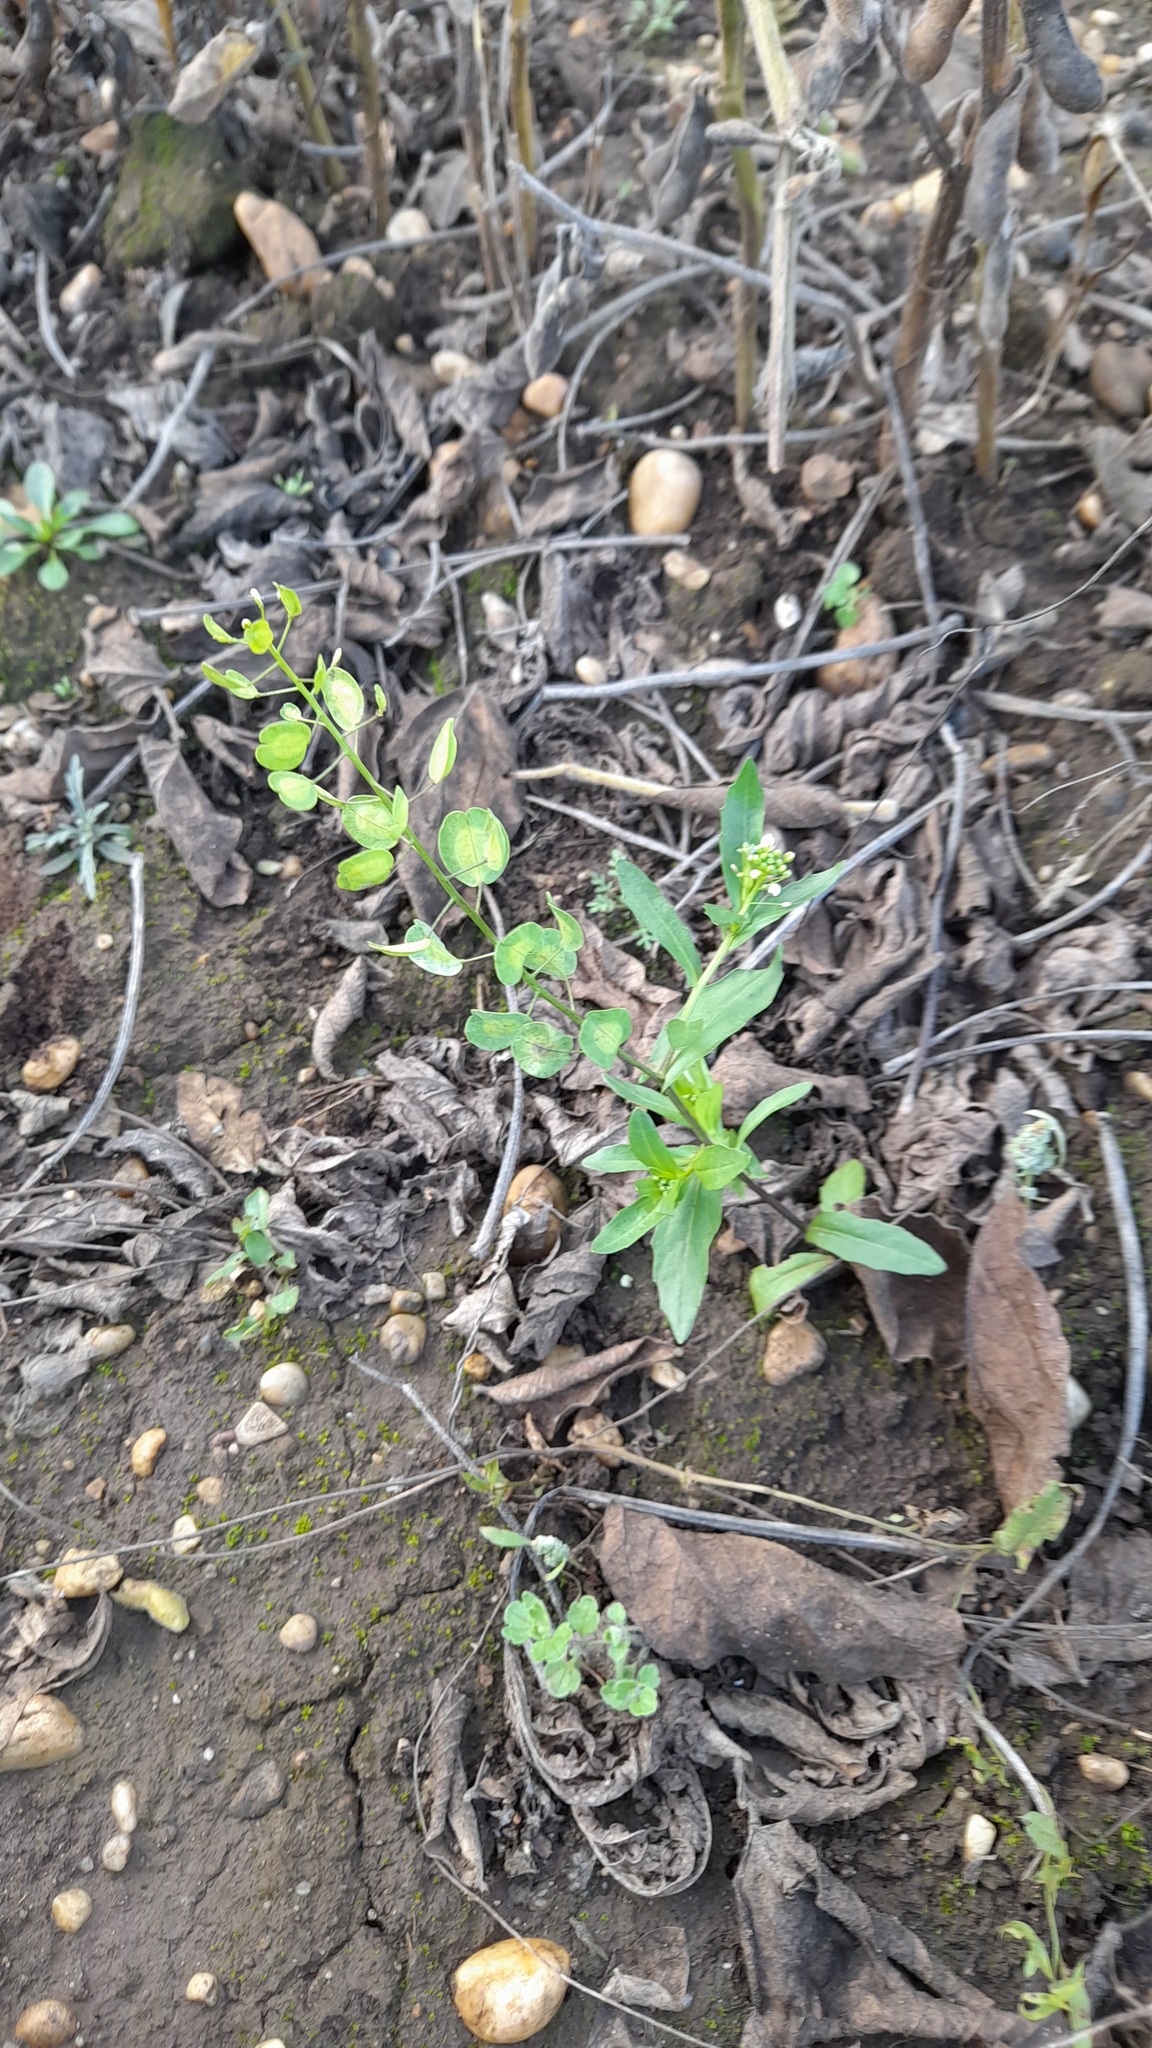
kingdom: Plantae
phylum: Tracheophyta
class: Magnoliopsida
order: Brassicales
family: Brassicaceae
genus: Thlaspi
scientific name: Thlaspi arvense
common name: Field pennycress
